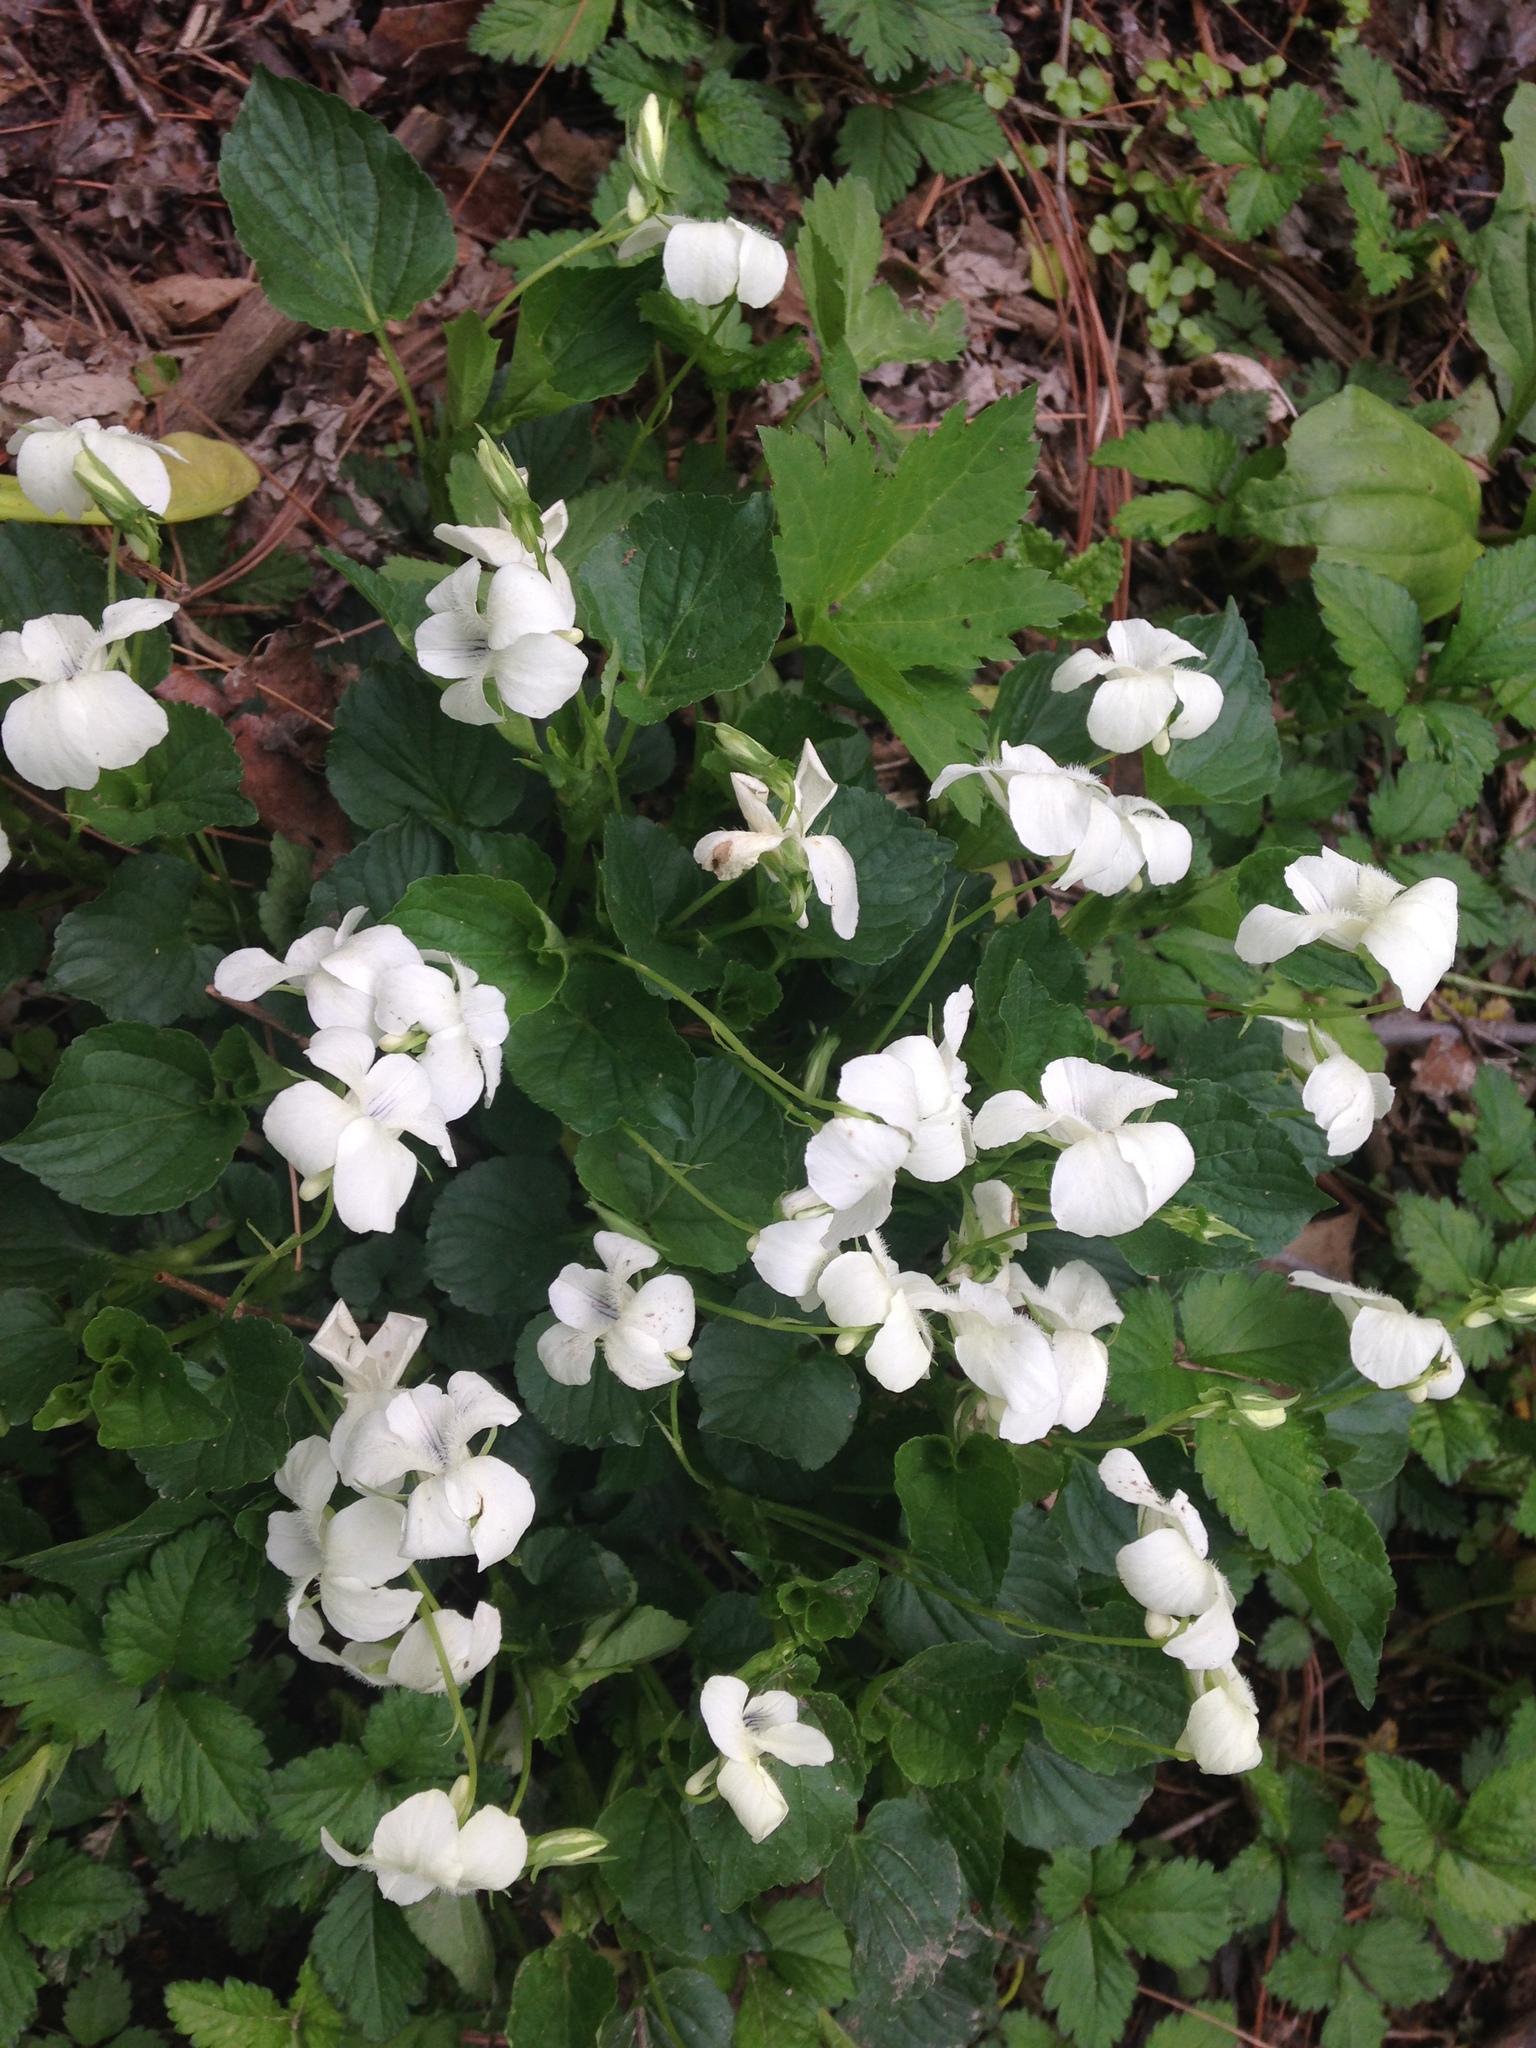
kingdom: Plantae
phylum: Tracheophyta
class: Magnoliopsida
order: Malpighiales
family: Violaceae
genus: Viola
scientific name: Viola striata
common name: Cream violet
